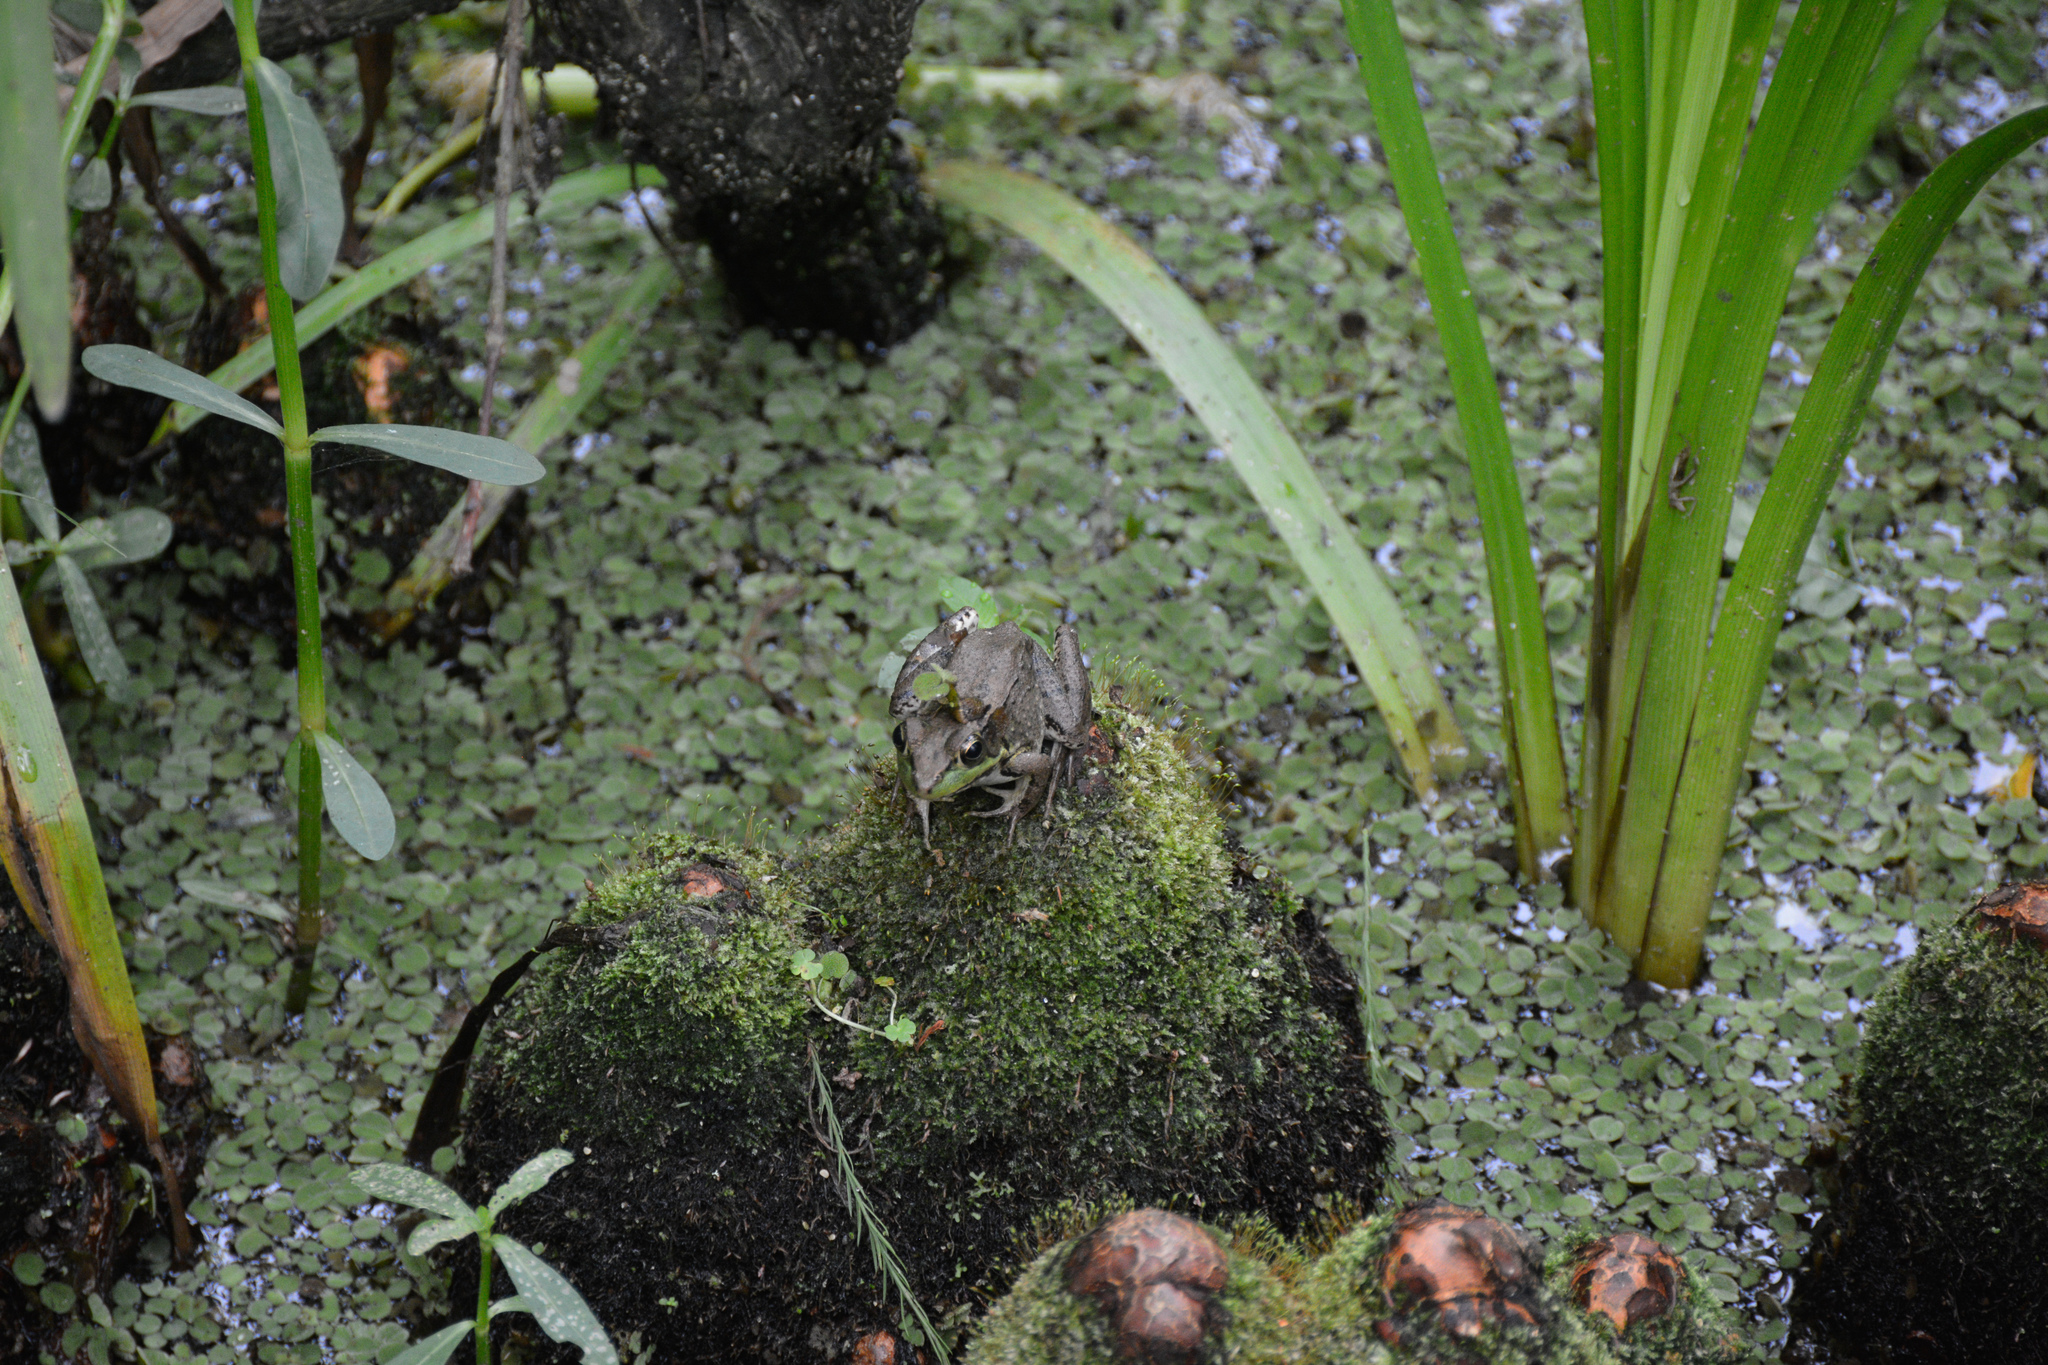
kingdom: Animalia
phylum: Chordata
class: Amphibia
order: Anura
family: Ranidae
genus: Lithobates
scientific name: Lithobates clamitans
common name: Green frog
